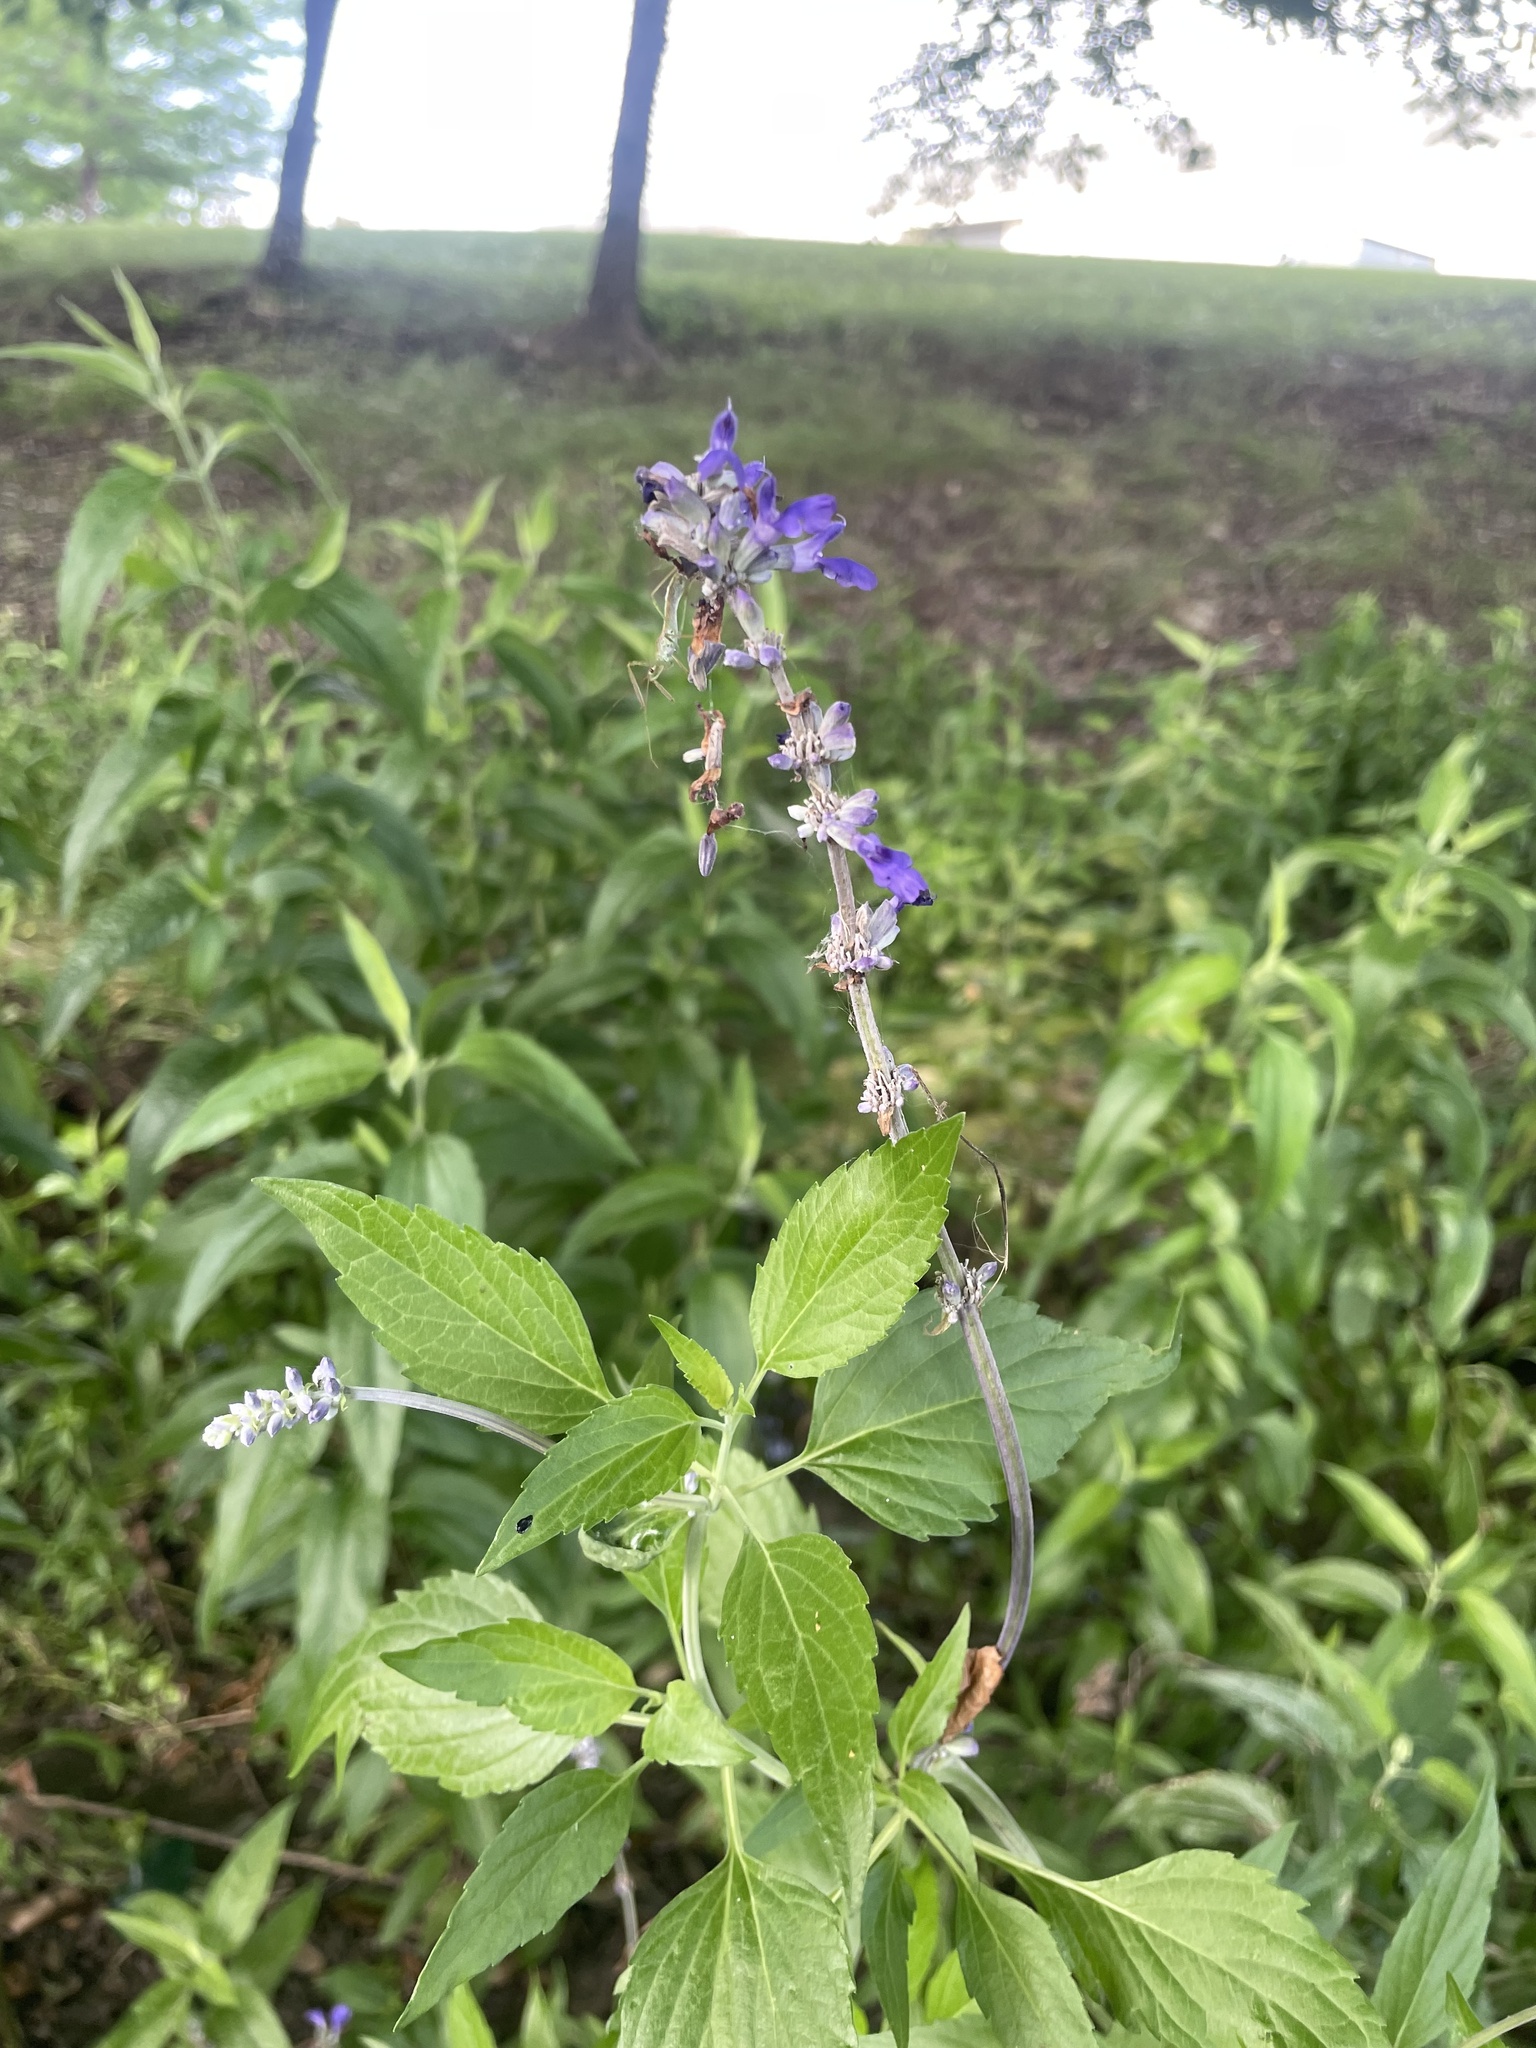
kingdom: Plantae
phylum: Tracheophyta
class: Magnoliopsida
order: Lamiales
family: Lamiaceae
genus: Salvia
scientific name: Salvia farinacea
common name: Mealy sage
